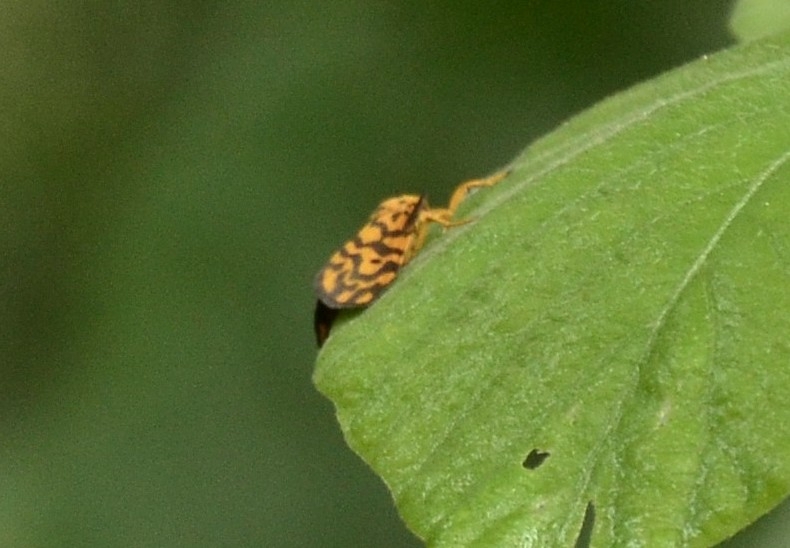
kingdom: Animalia
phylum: Arthropoda
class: Insecta
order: Lepidoptera
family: Erebidae
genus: Nepita
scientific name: Nepita conferta
